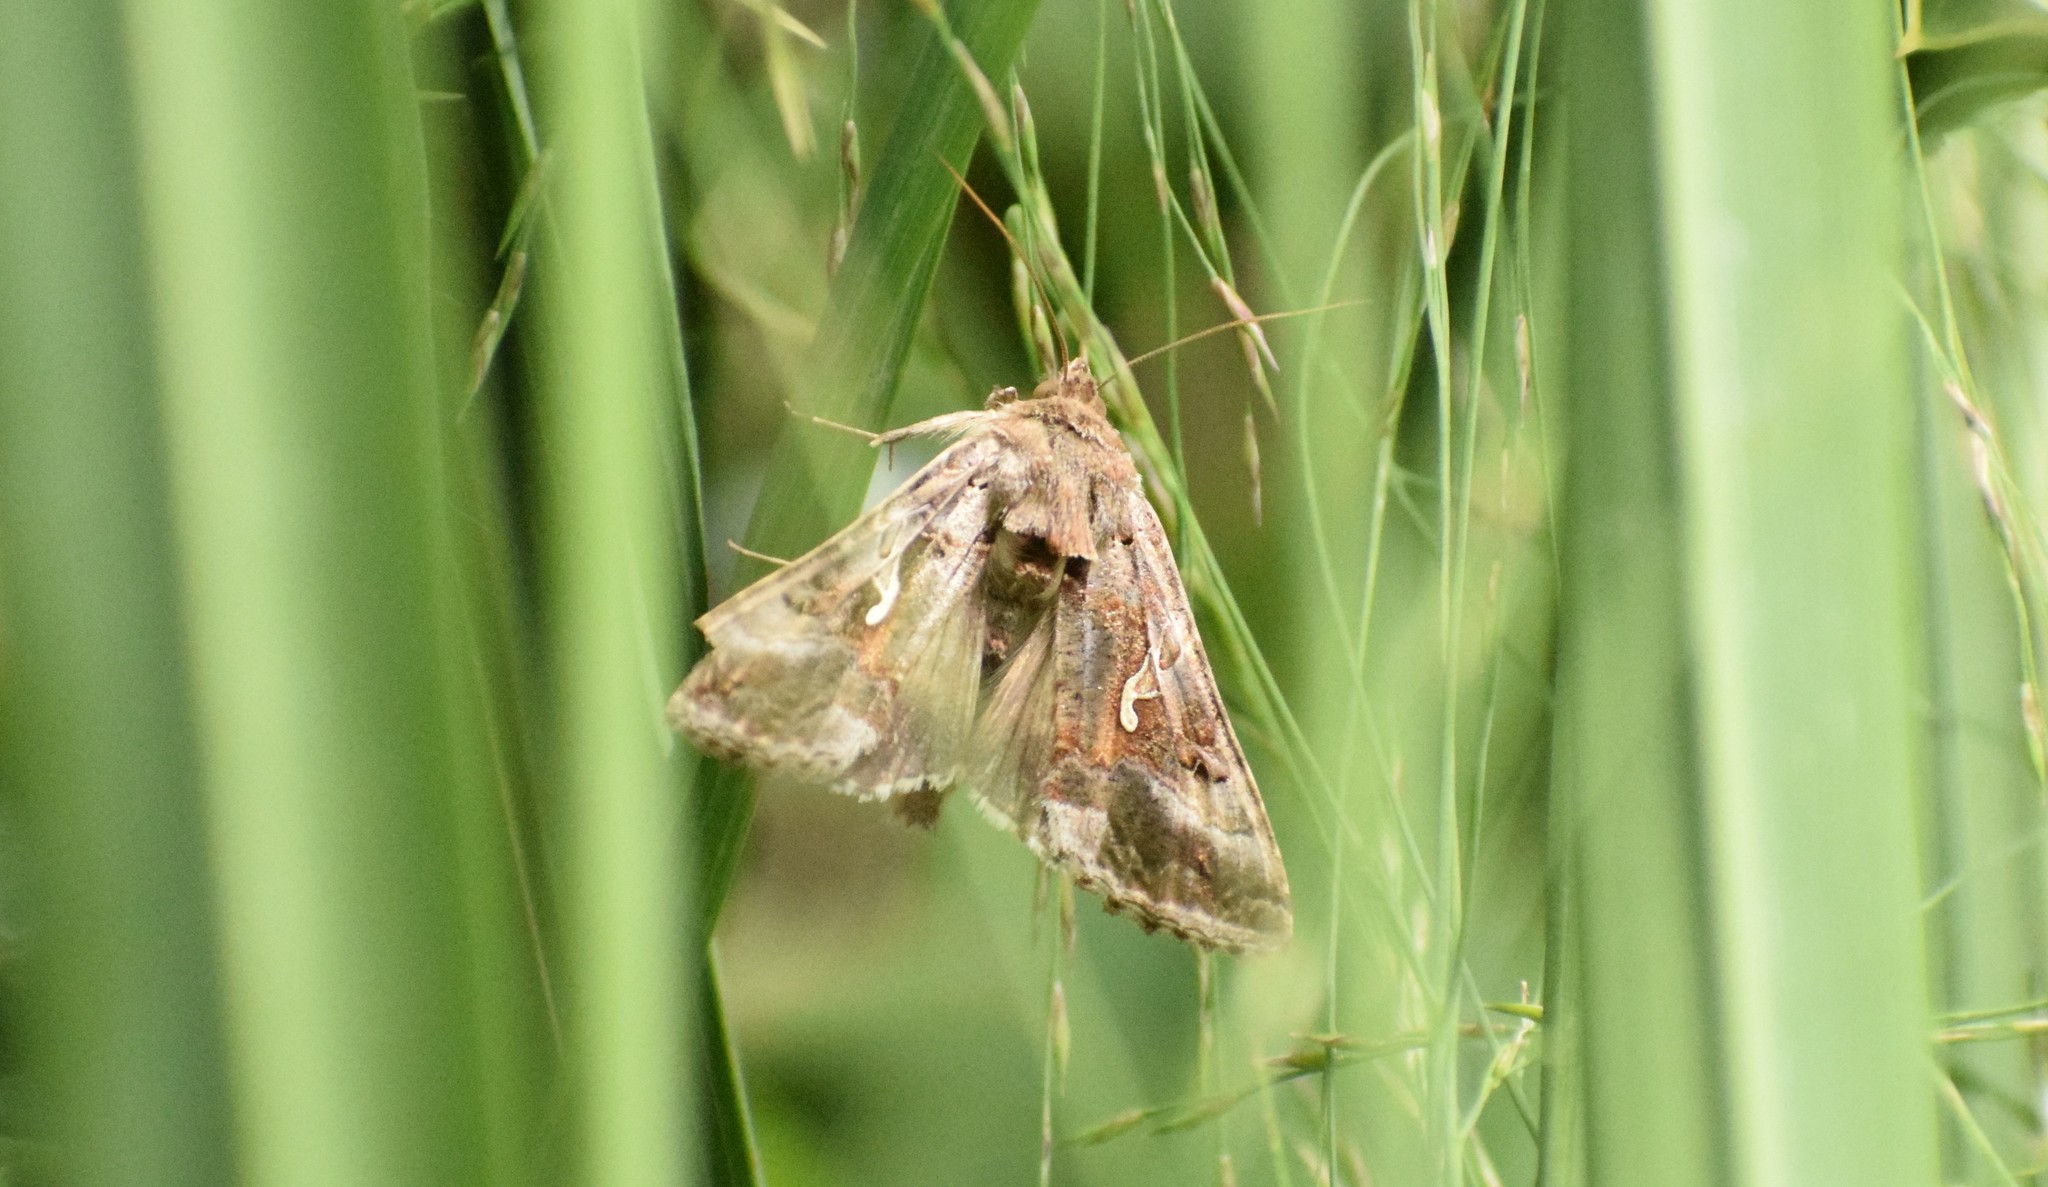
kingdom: Animalia
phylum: Arthropoda
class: Insecta
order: Lepidoptera
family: Noctuidae
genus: Autographa
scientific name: Autographa gamma
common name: Silver y
